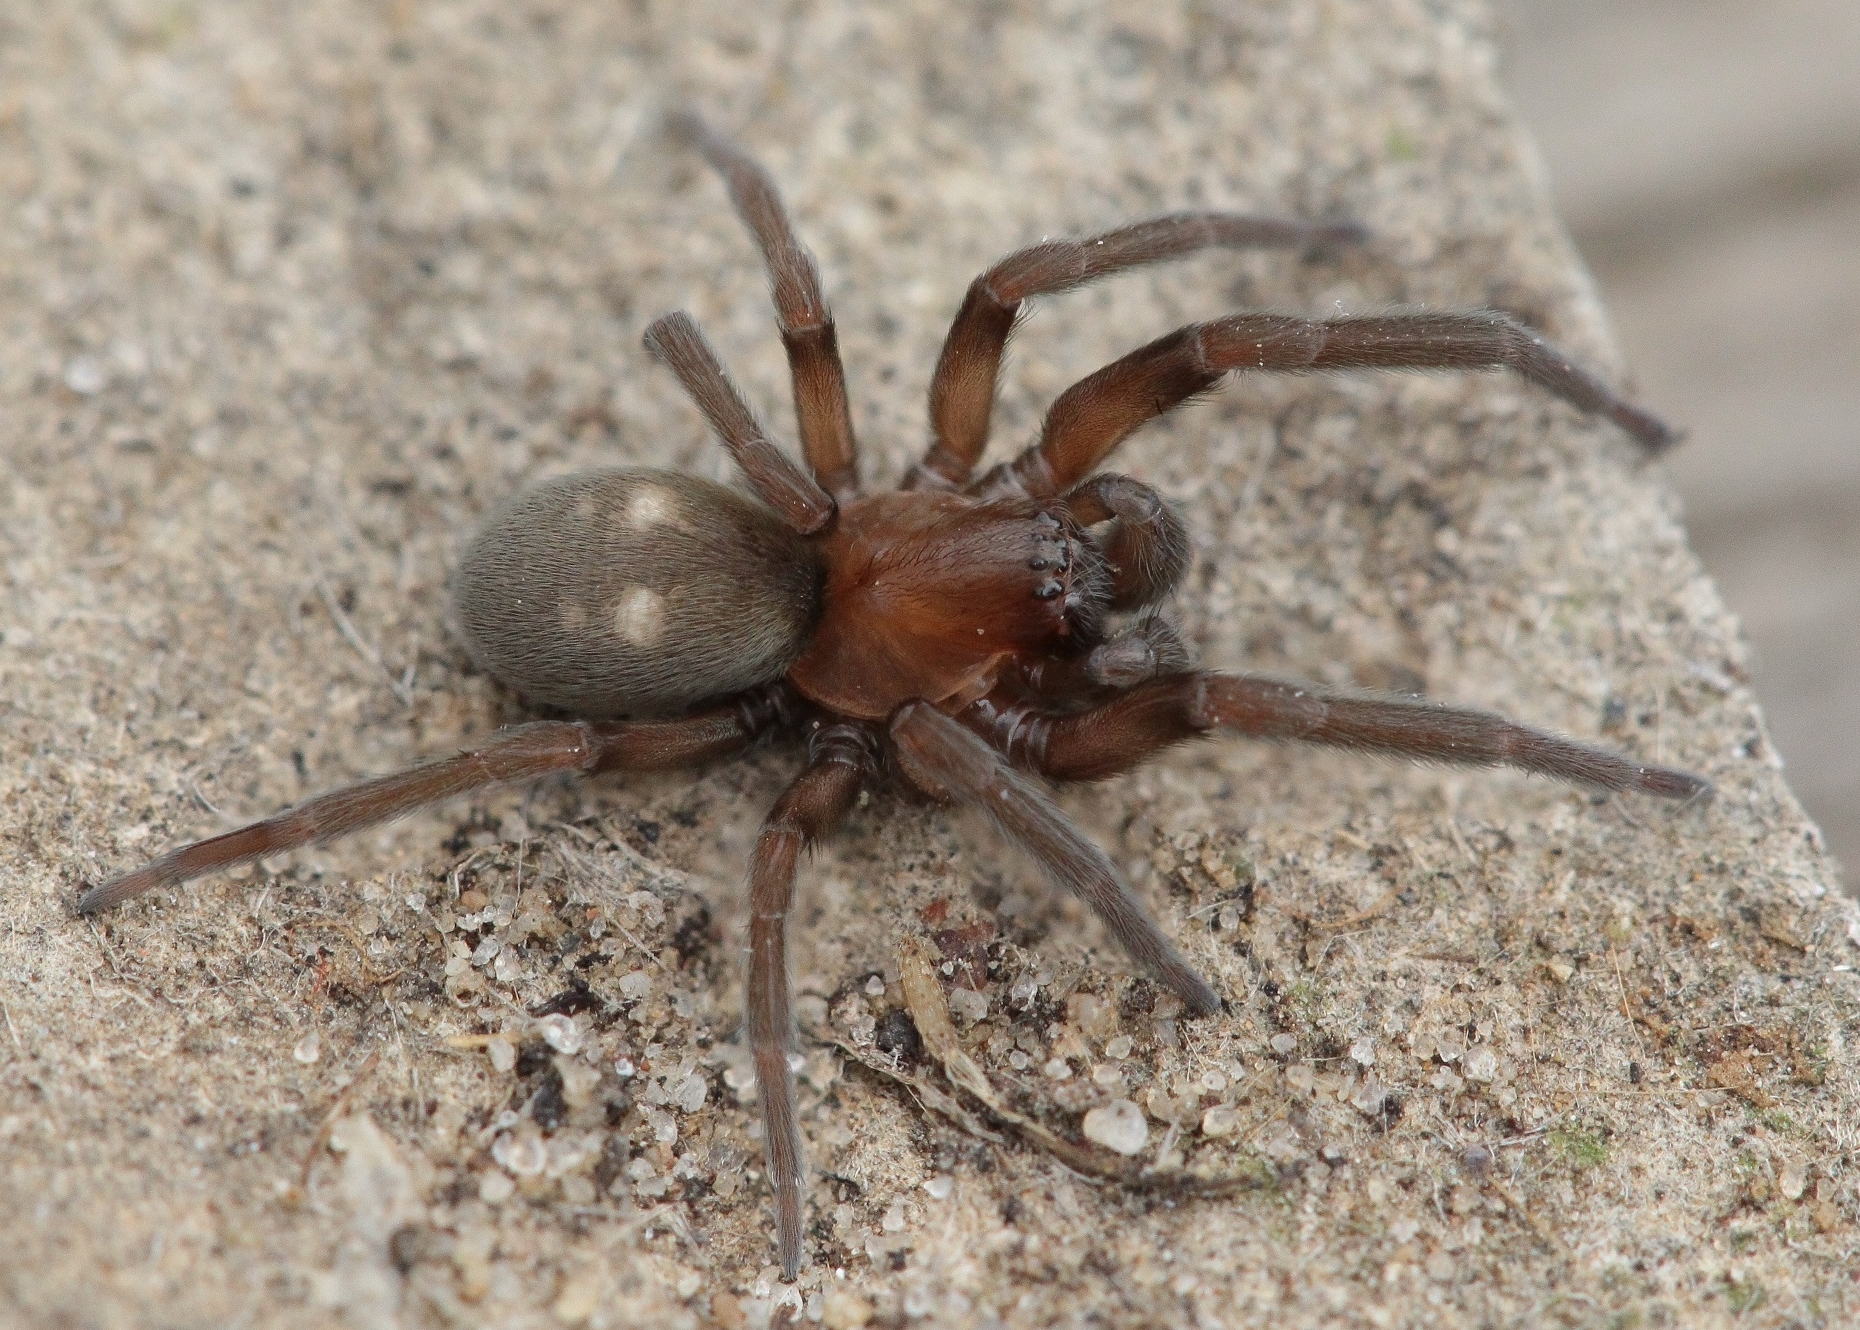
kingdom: Animalia
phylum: Arthropoda
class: Arachnida
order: Araneae
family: Titanoecidae
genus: Titanoeca
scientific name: Titanoeca schineri
